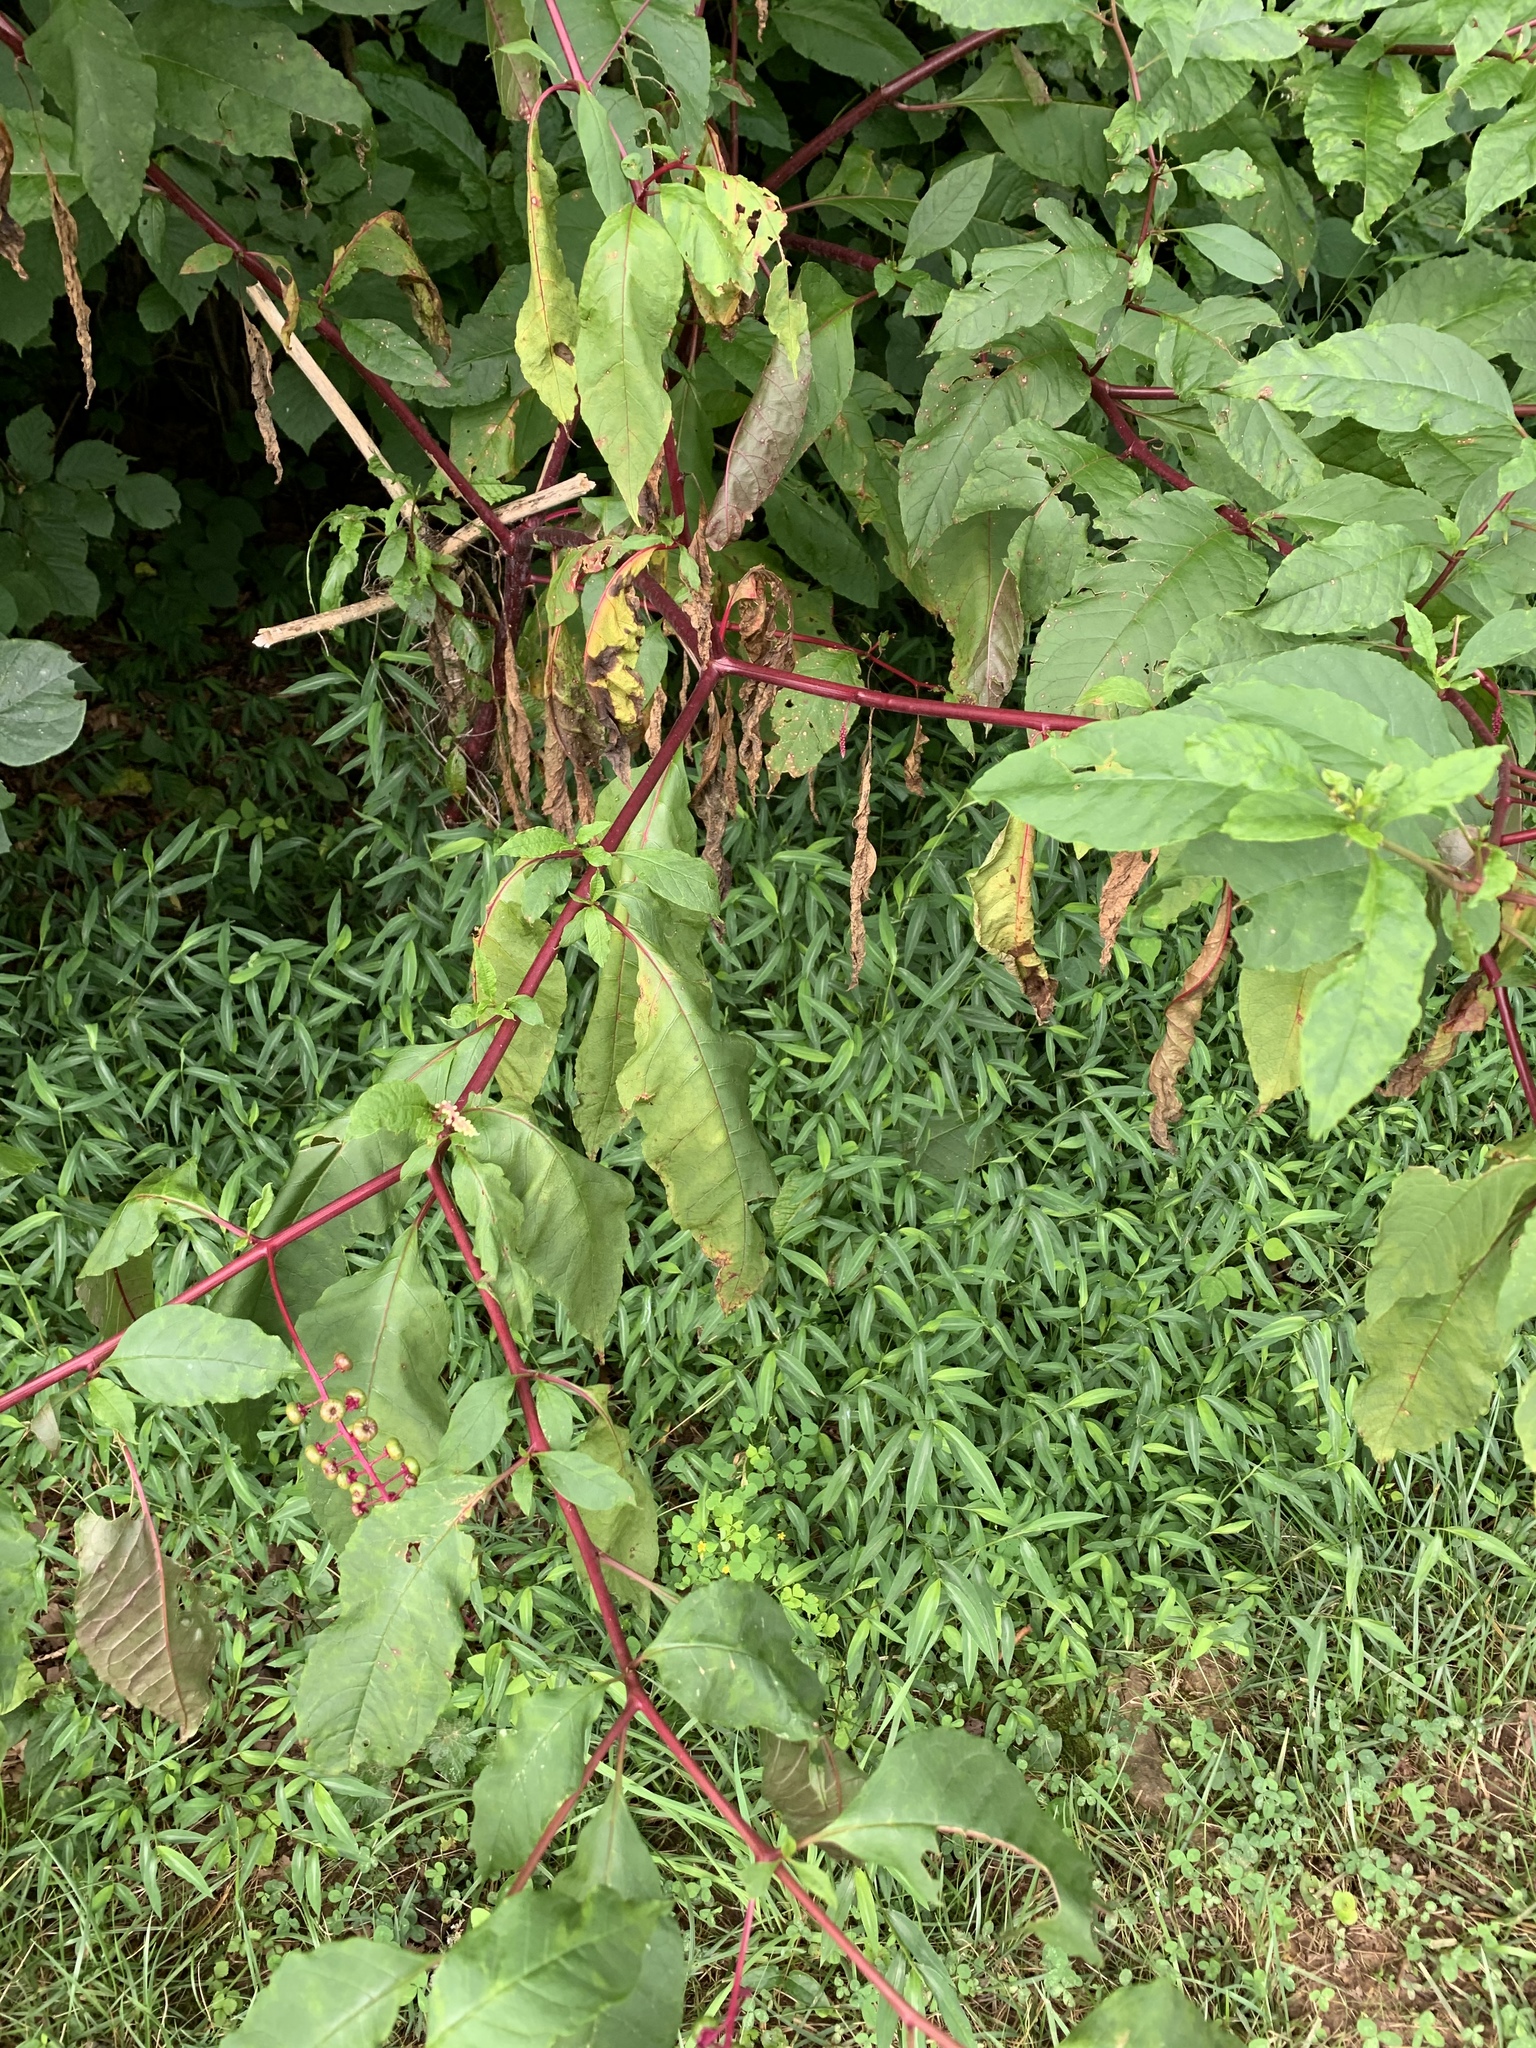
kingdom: Plantae
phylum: Tracheophyta
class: Magnoliopsida
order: Caryophyllales
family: Phytolaccaceae
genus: Phytolacca
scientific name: Phytolacca americana
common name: American pokeweed
